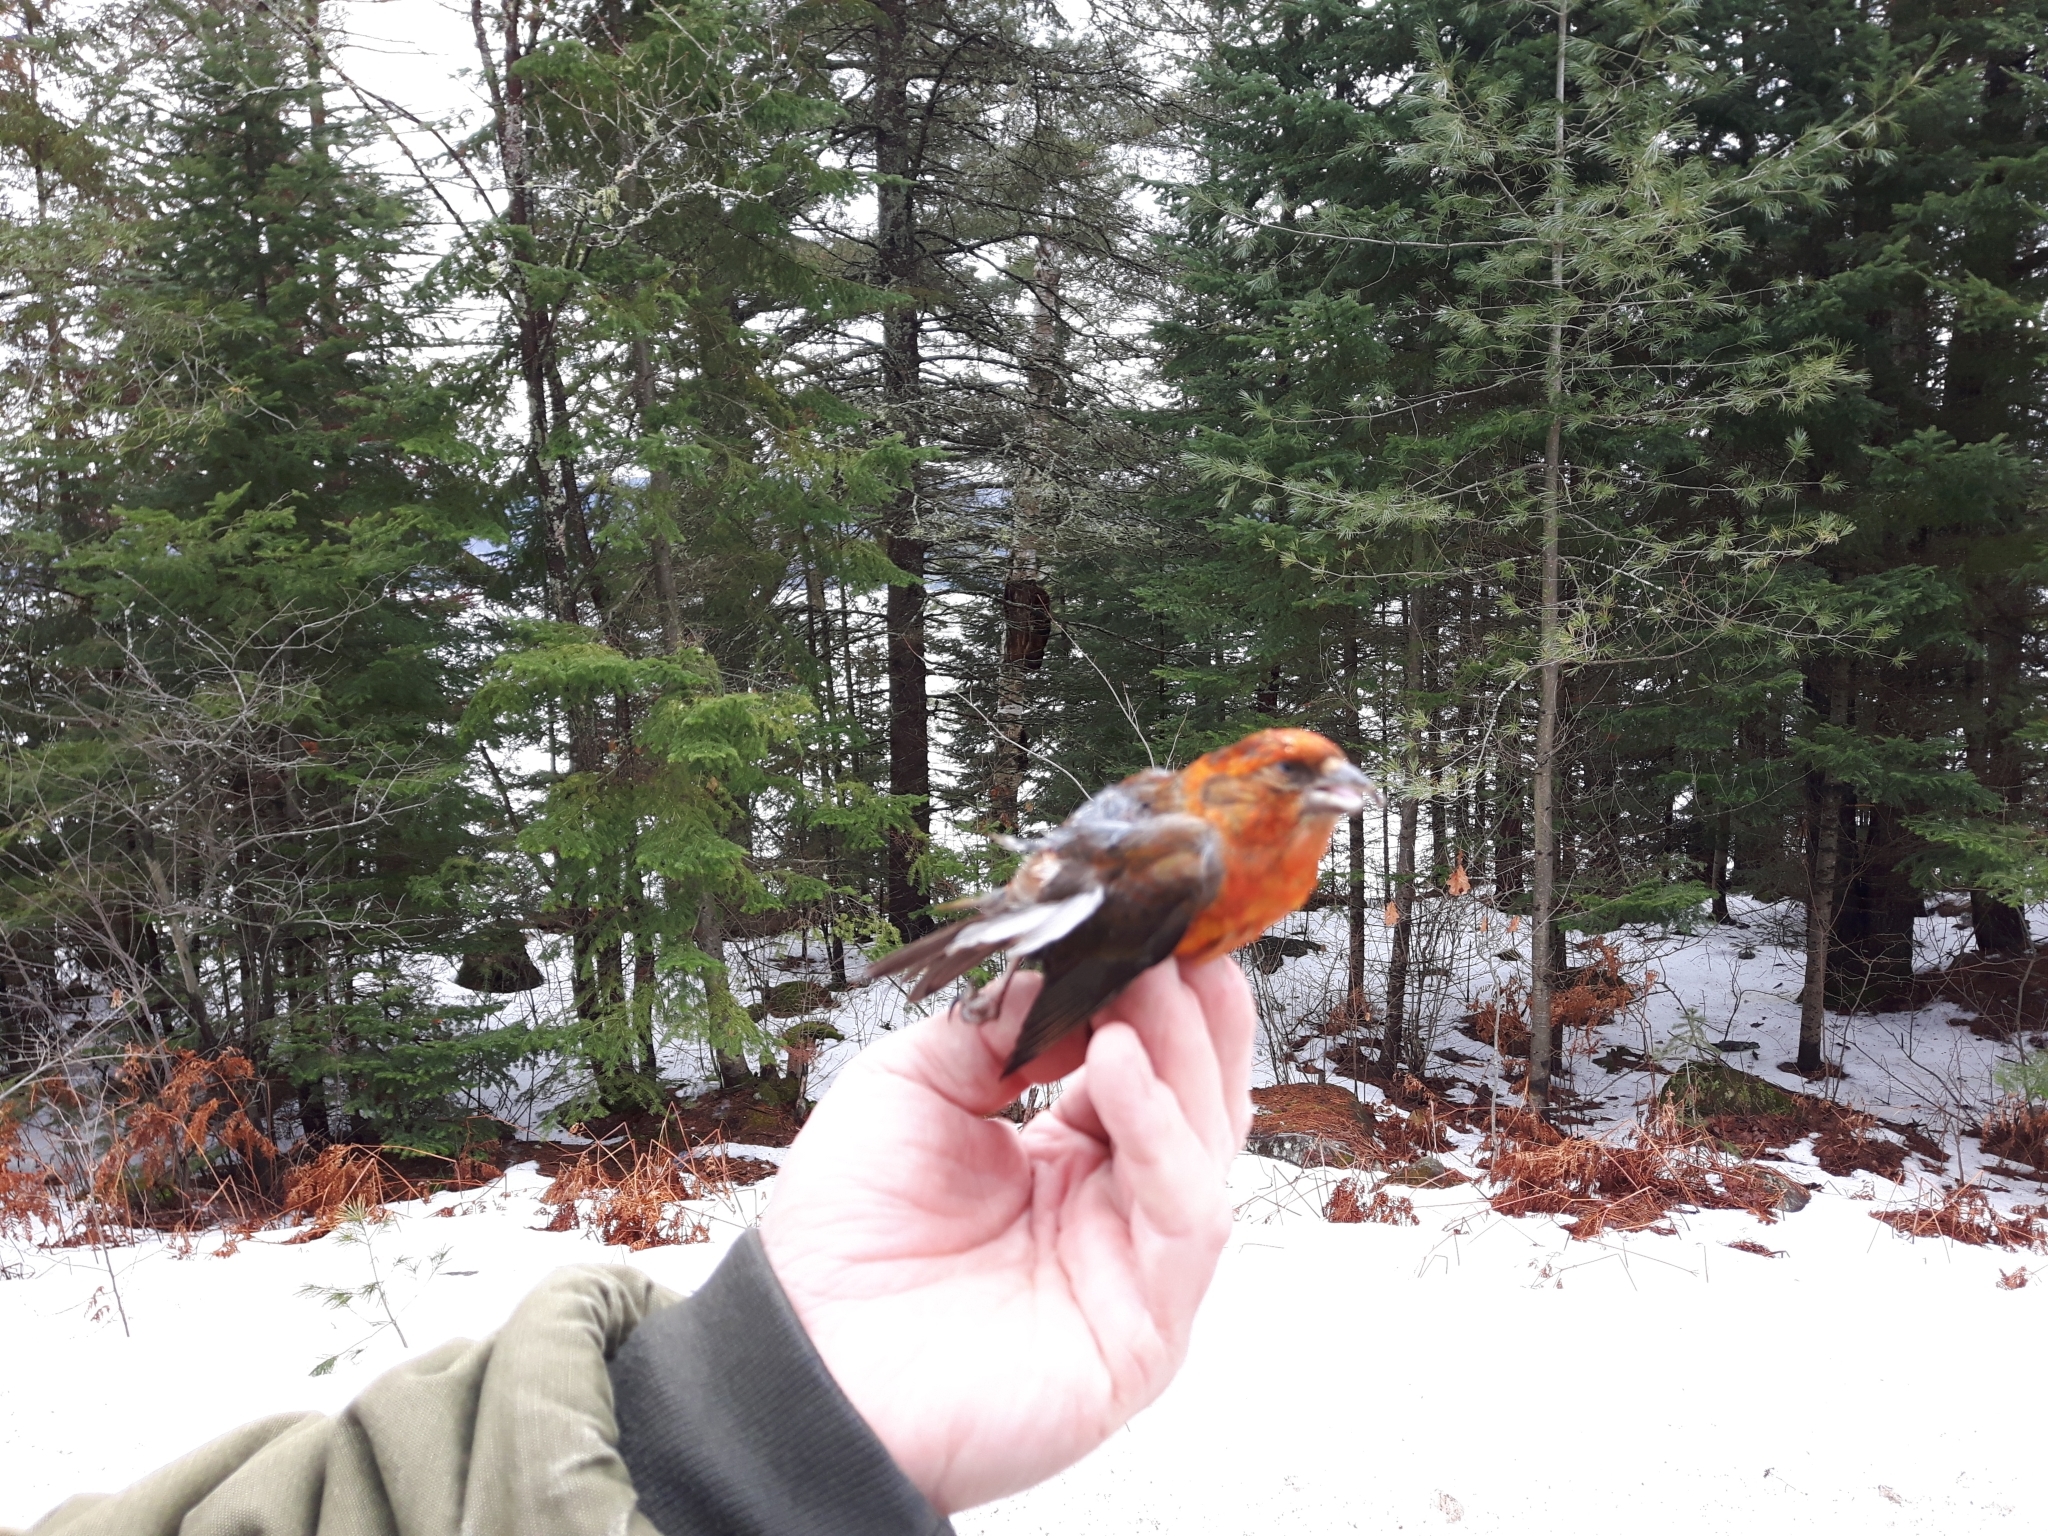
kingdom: Animalia
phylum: Chordata
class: Aves
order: Passeriformes
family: Fringillidae
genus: Loxia
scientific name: Loxia curvirostra
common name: Red crossbill
